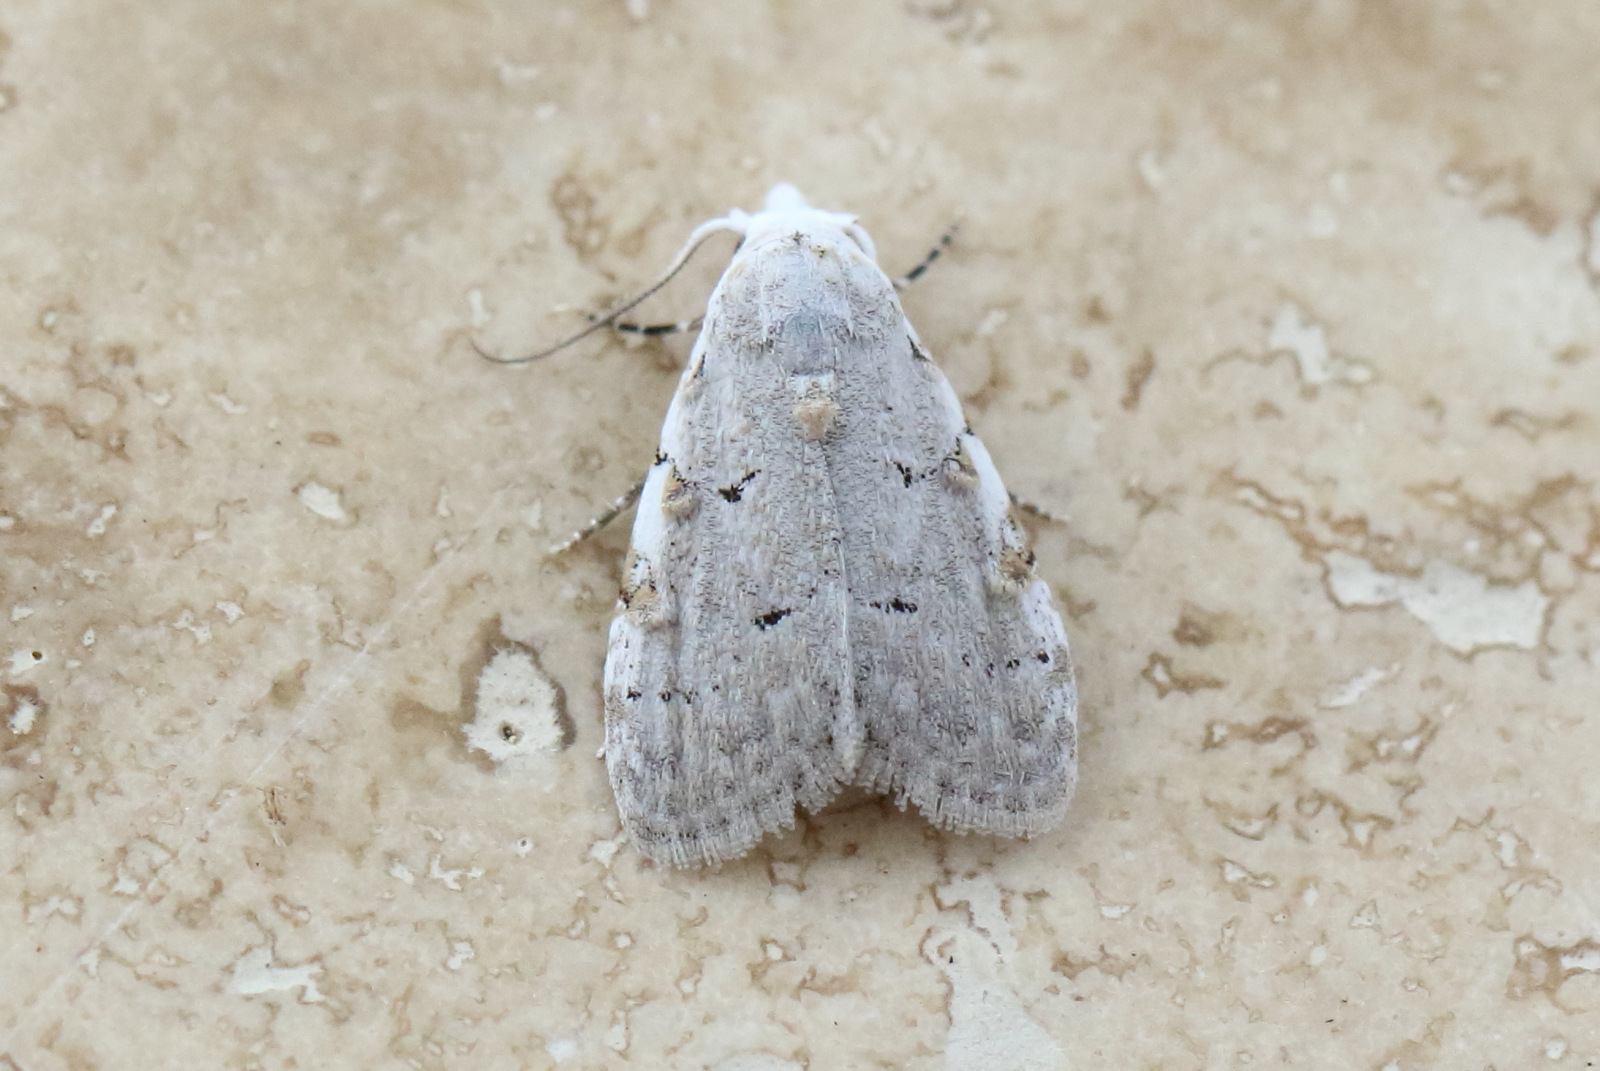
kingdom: Animalia
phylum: Arthropoda
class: Insecta
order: Lepidoptera
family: Nolidae
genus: Nola
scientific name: Nola argentea
